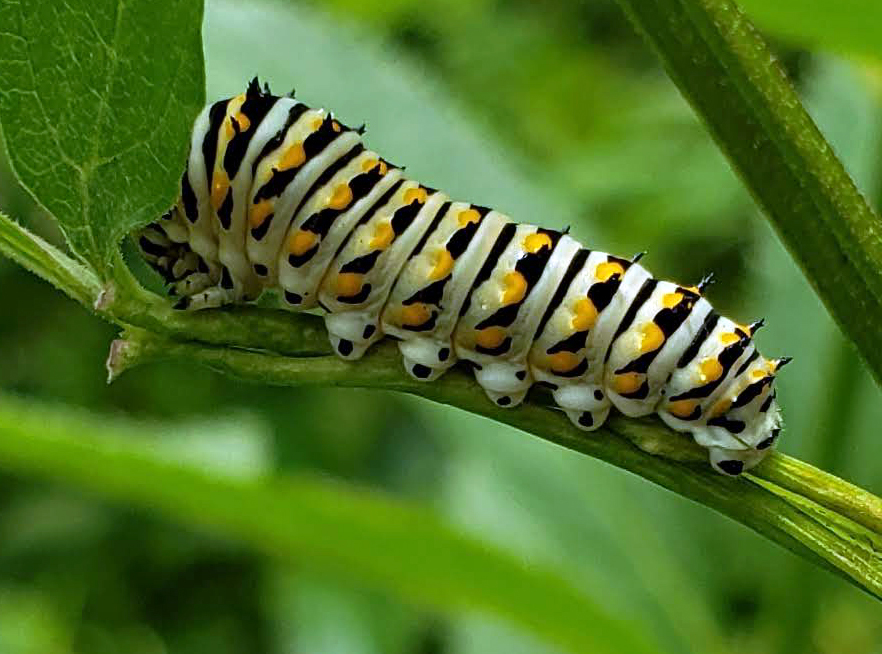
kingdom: Animalia
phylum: Arthropoda
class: Insecta
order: Lepidoptera
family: Papilionidae
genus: Papilio
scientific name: Papilio polyxenes
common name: Black swallowtail
